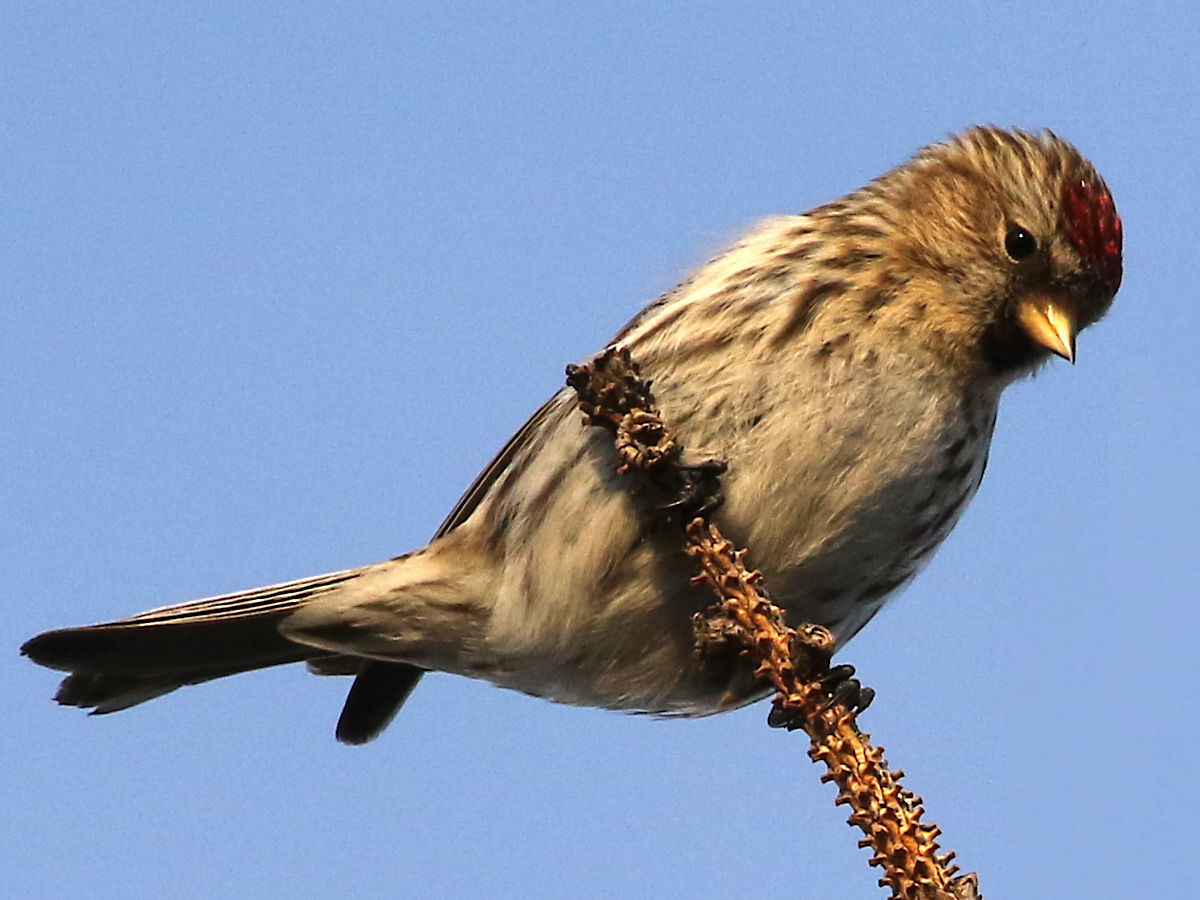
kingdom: Animalia
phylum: Chordata
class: Aves
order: Passeriformes
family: Fringillidae
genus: Acanthis
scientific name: Acanthis flammea
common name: Common redpoll
